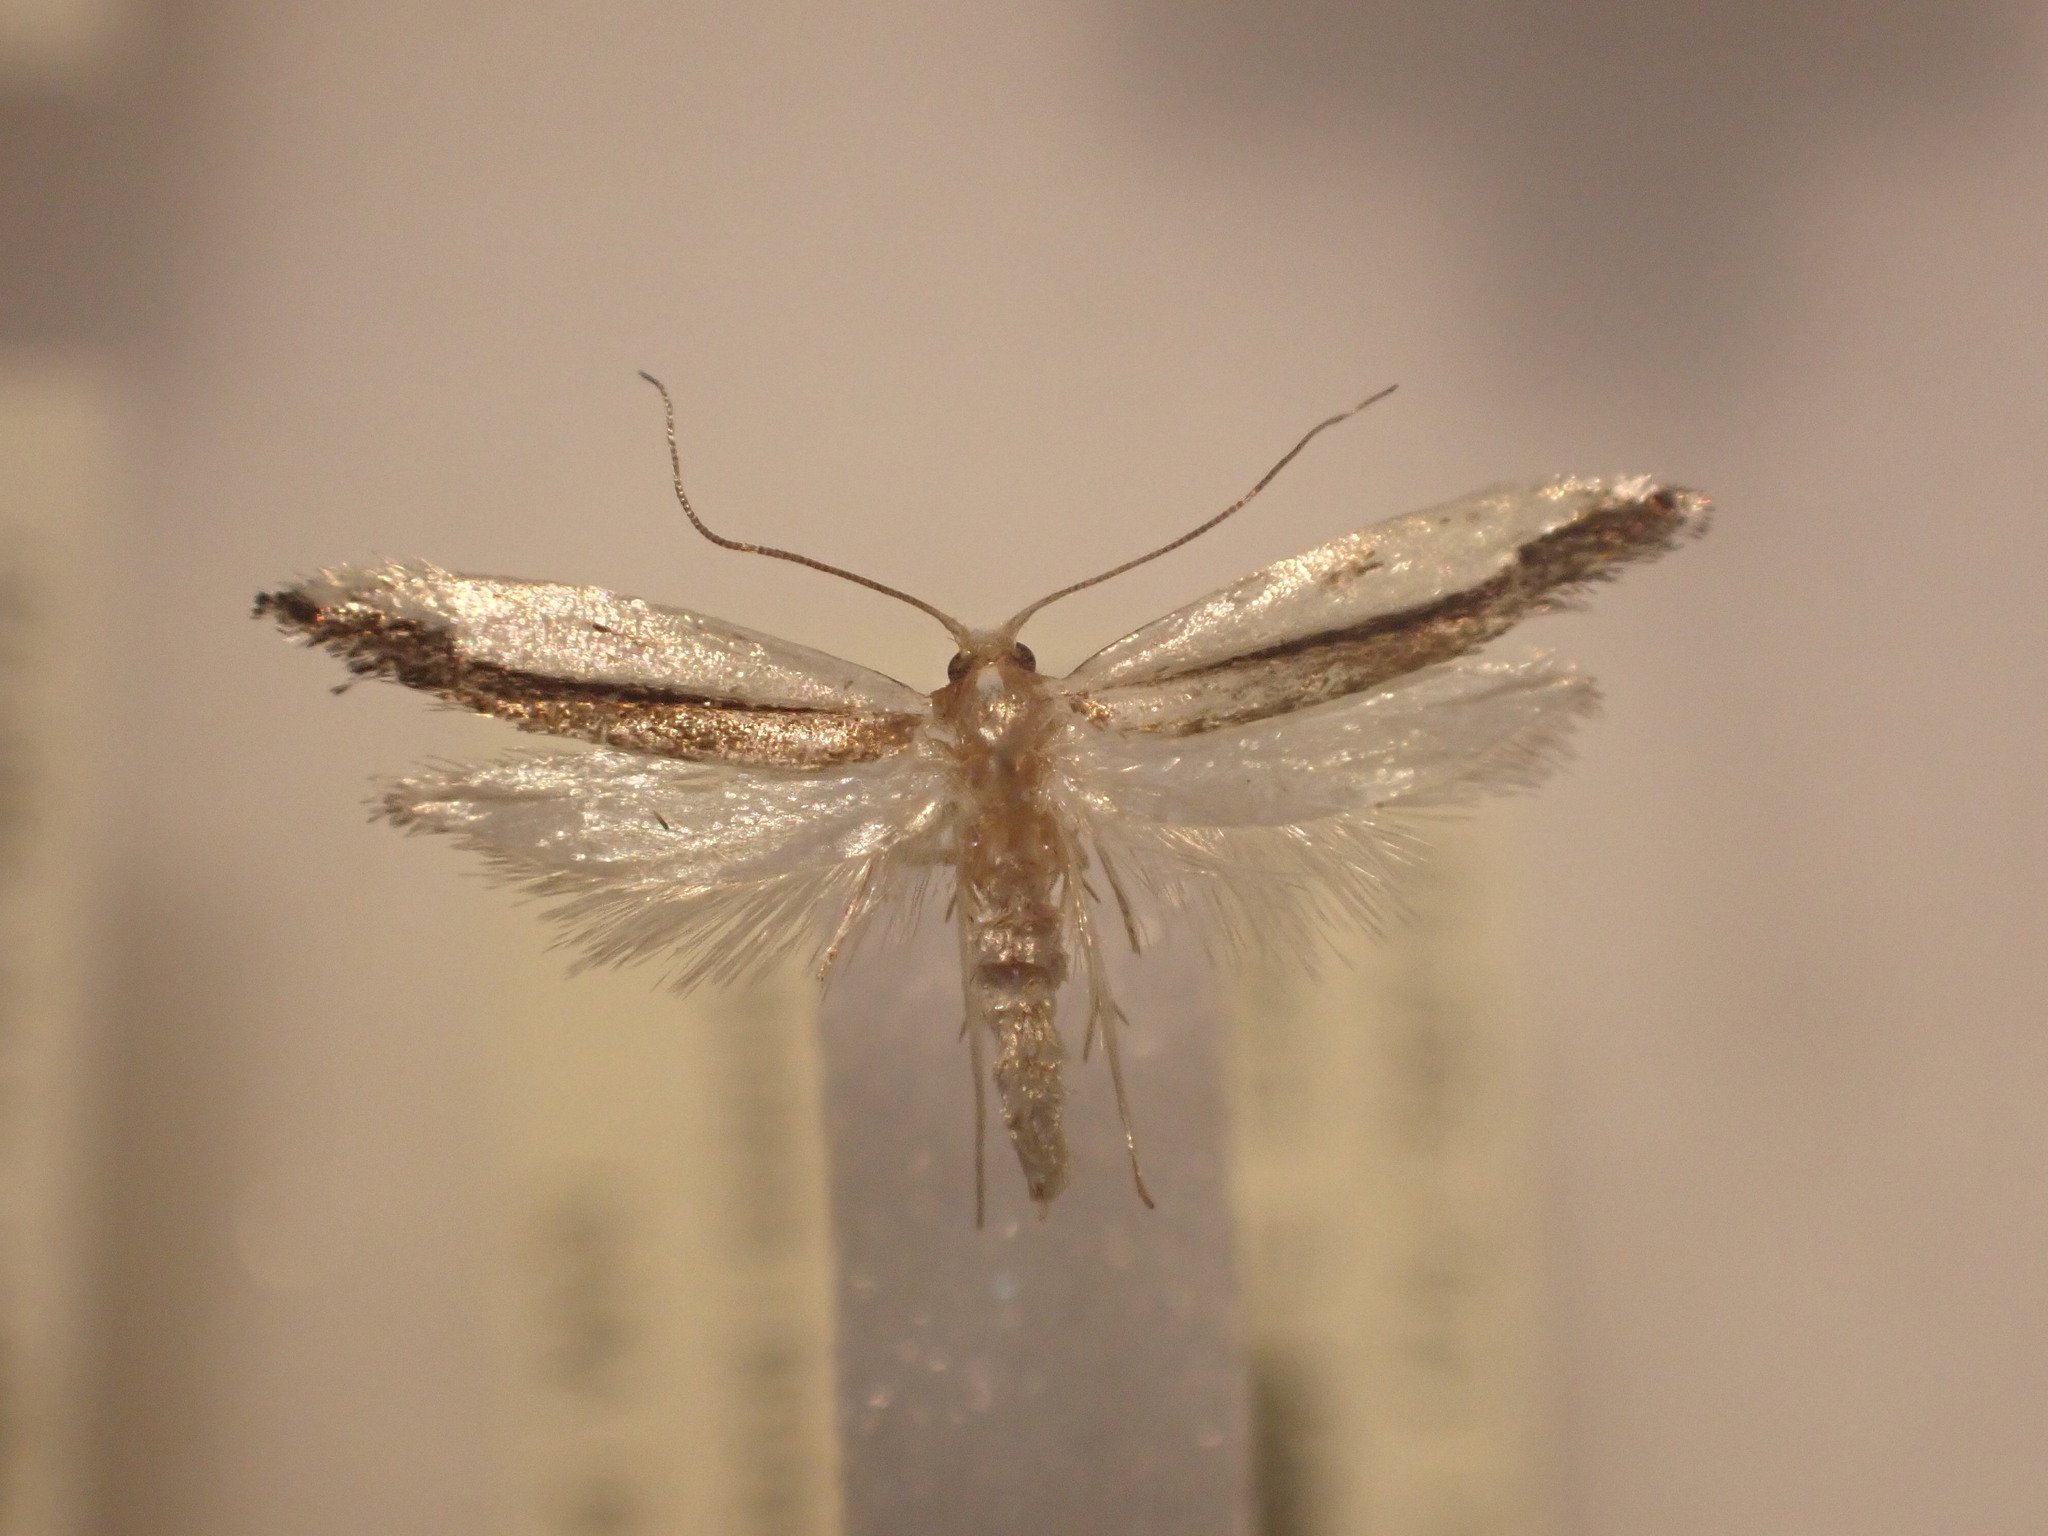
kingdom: Animalia
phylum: Arthropoda
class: Insecta
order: Lepidoptera
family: Tineidae
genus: Erechthias
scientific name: Erechthias chionodira
